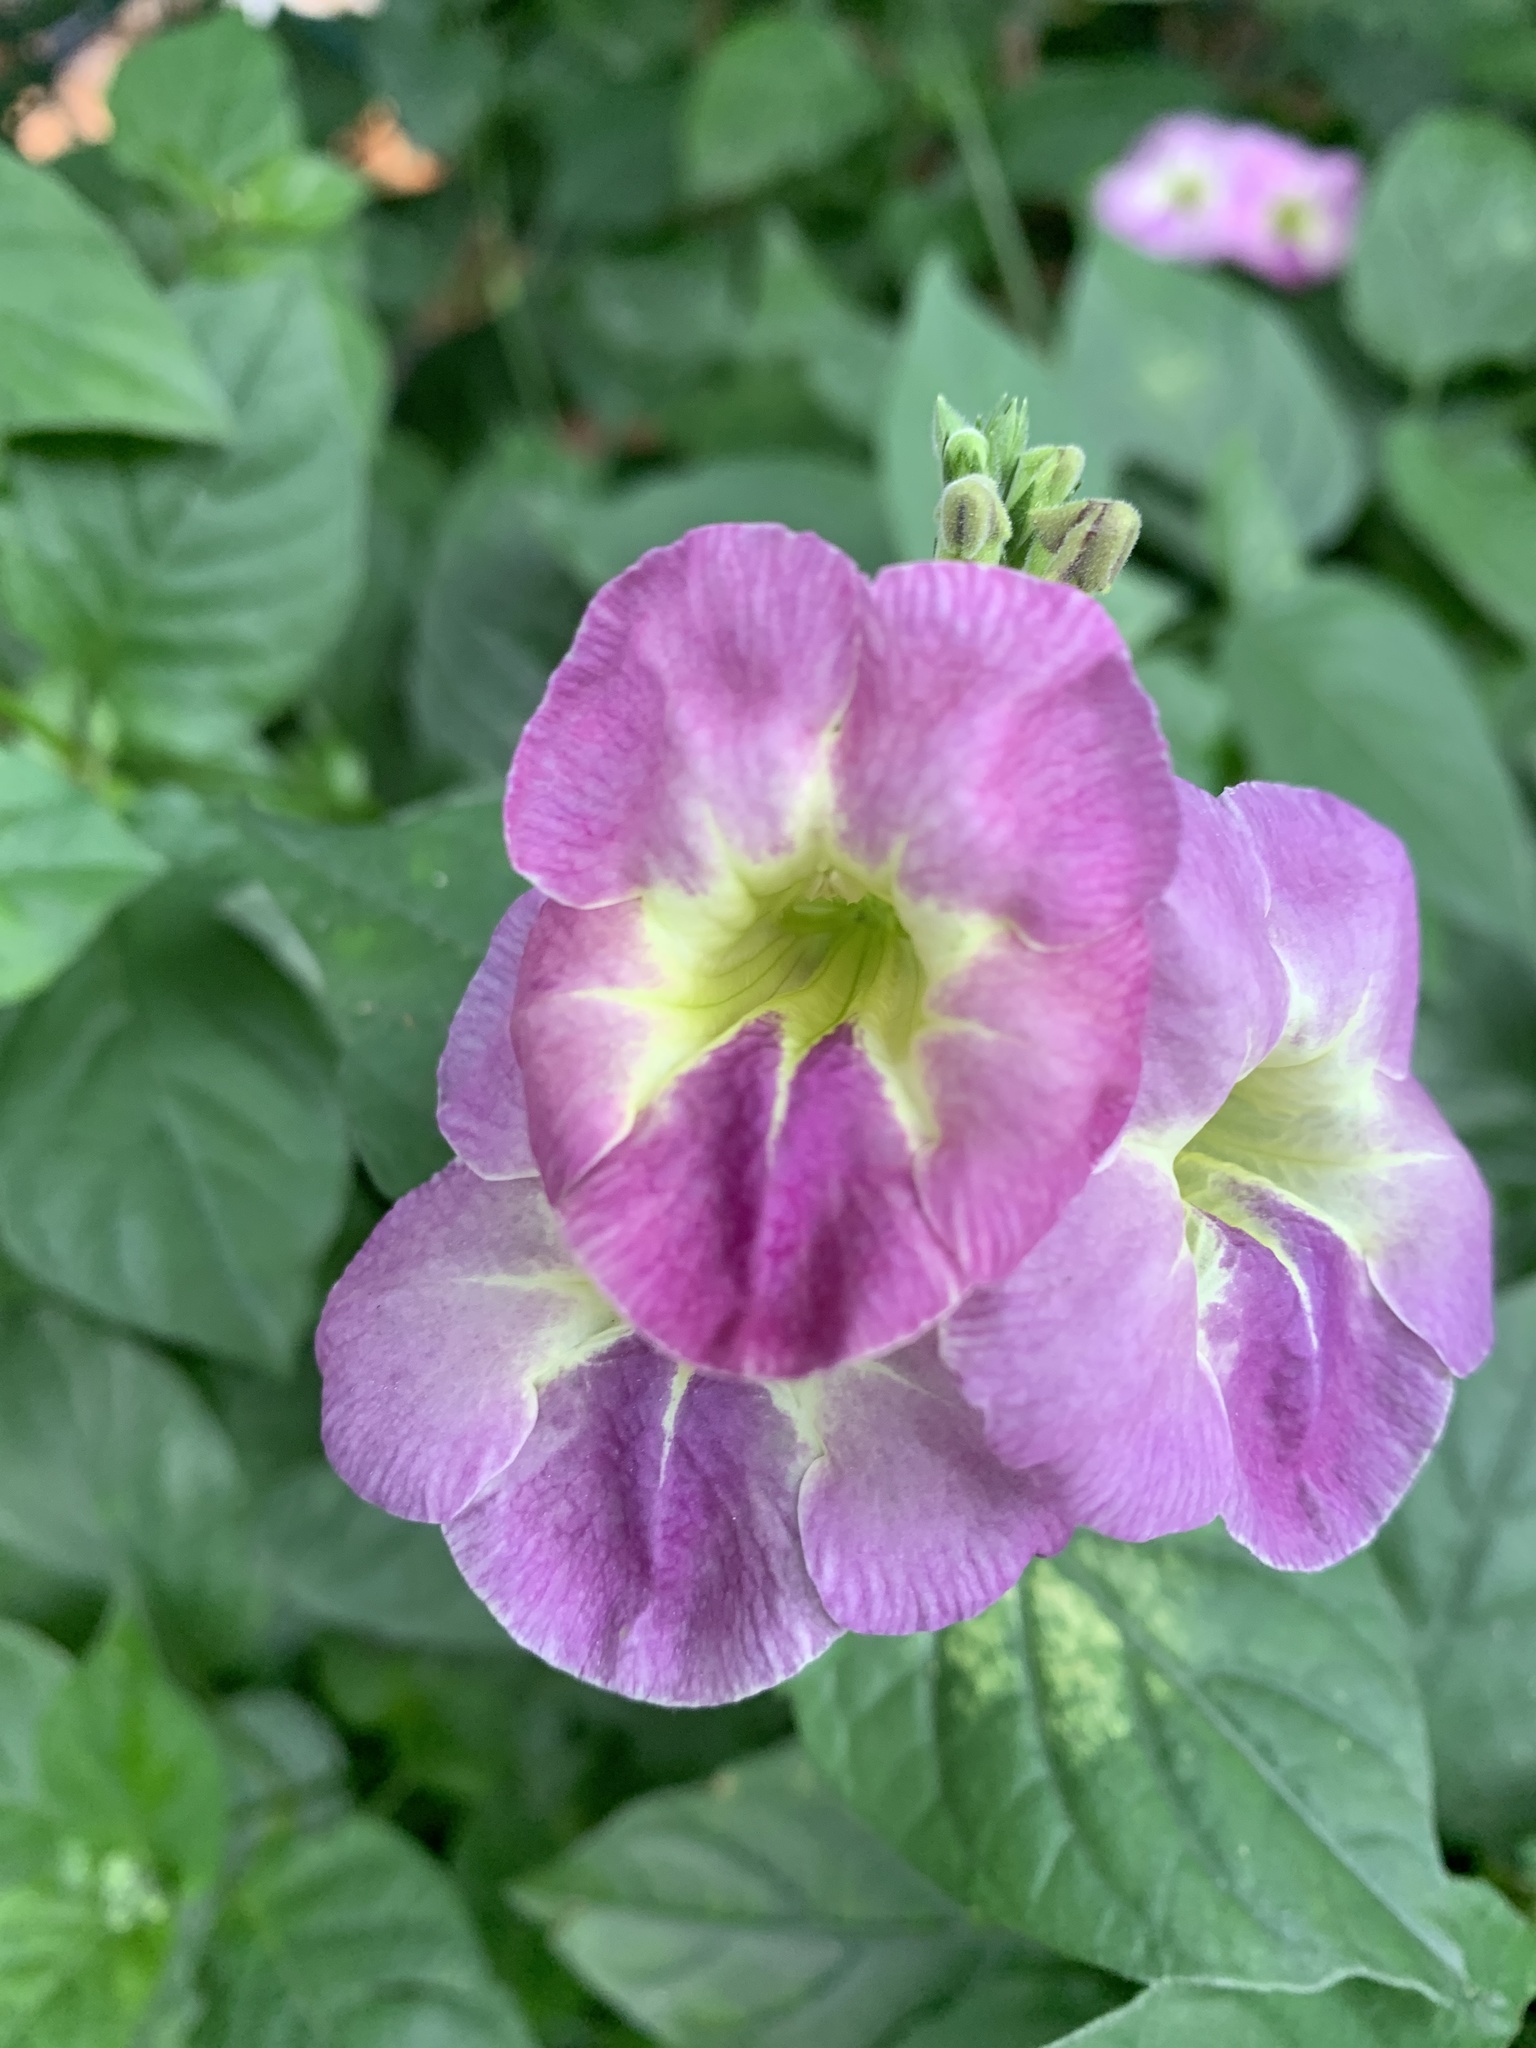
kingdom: Plantae
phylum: Tracheophyta
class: Magnoliopsida
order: Lamiales
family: Acanthaceae
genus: Asystasia
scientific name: Asystasia gangetica
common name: Chinese violet
